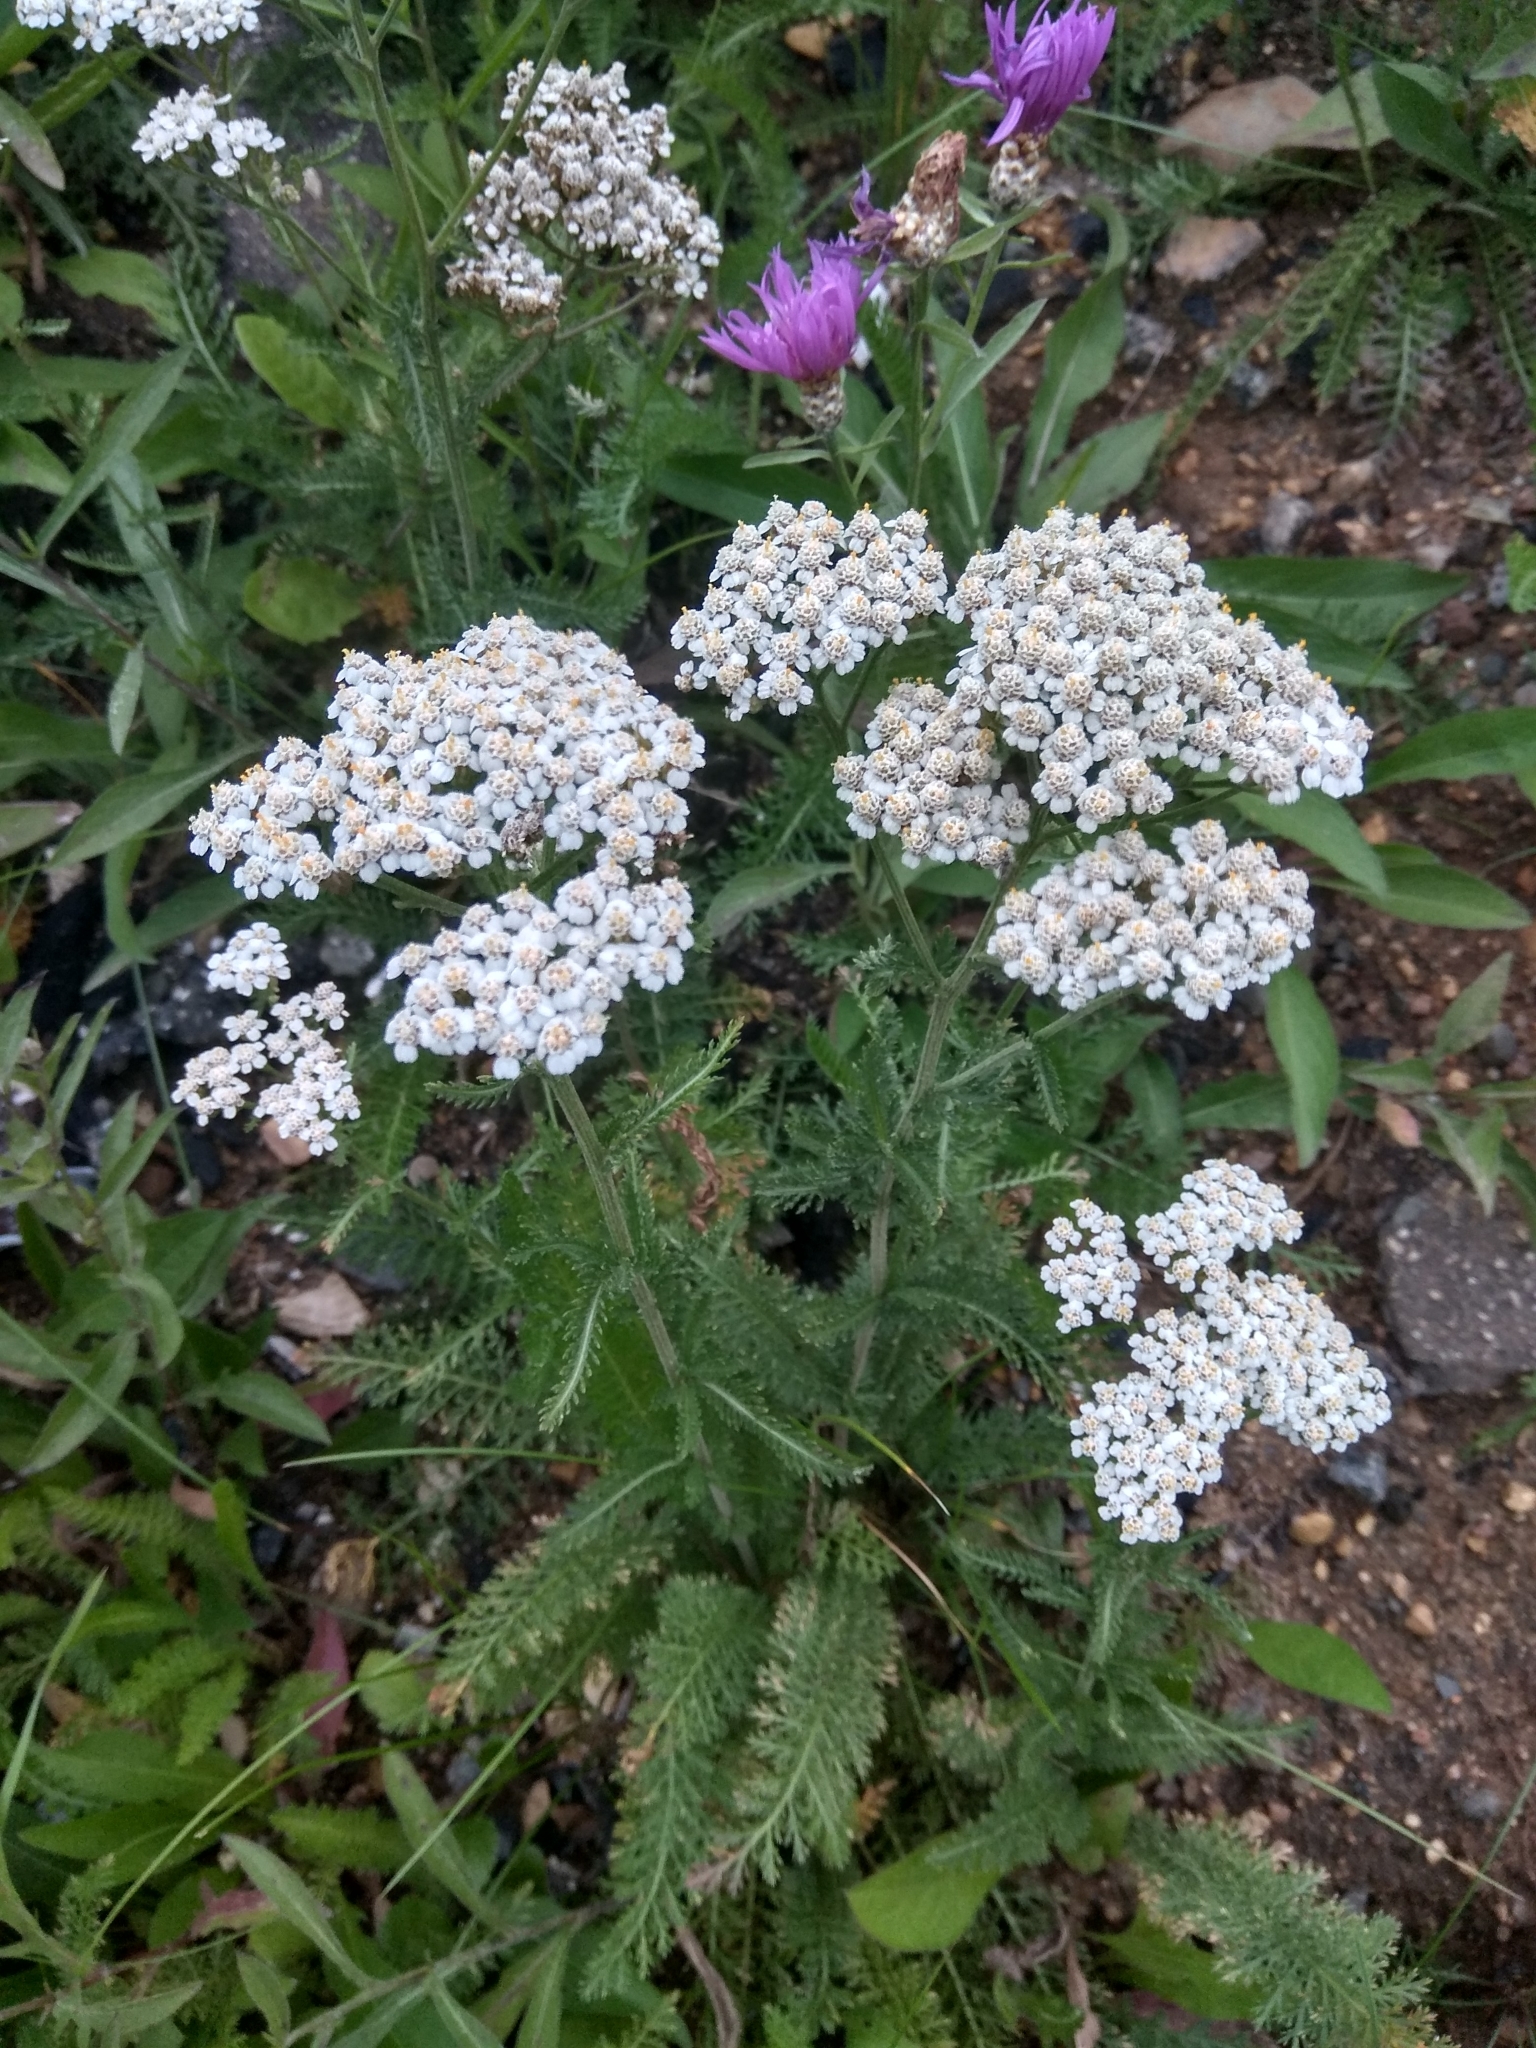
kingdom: Plantae
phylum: Tracheophyta
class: Magnoliopsida
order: Asterales
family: Asteraceae
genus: Achillea
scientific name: Achillea millefolium
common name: Yarrow
